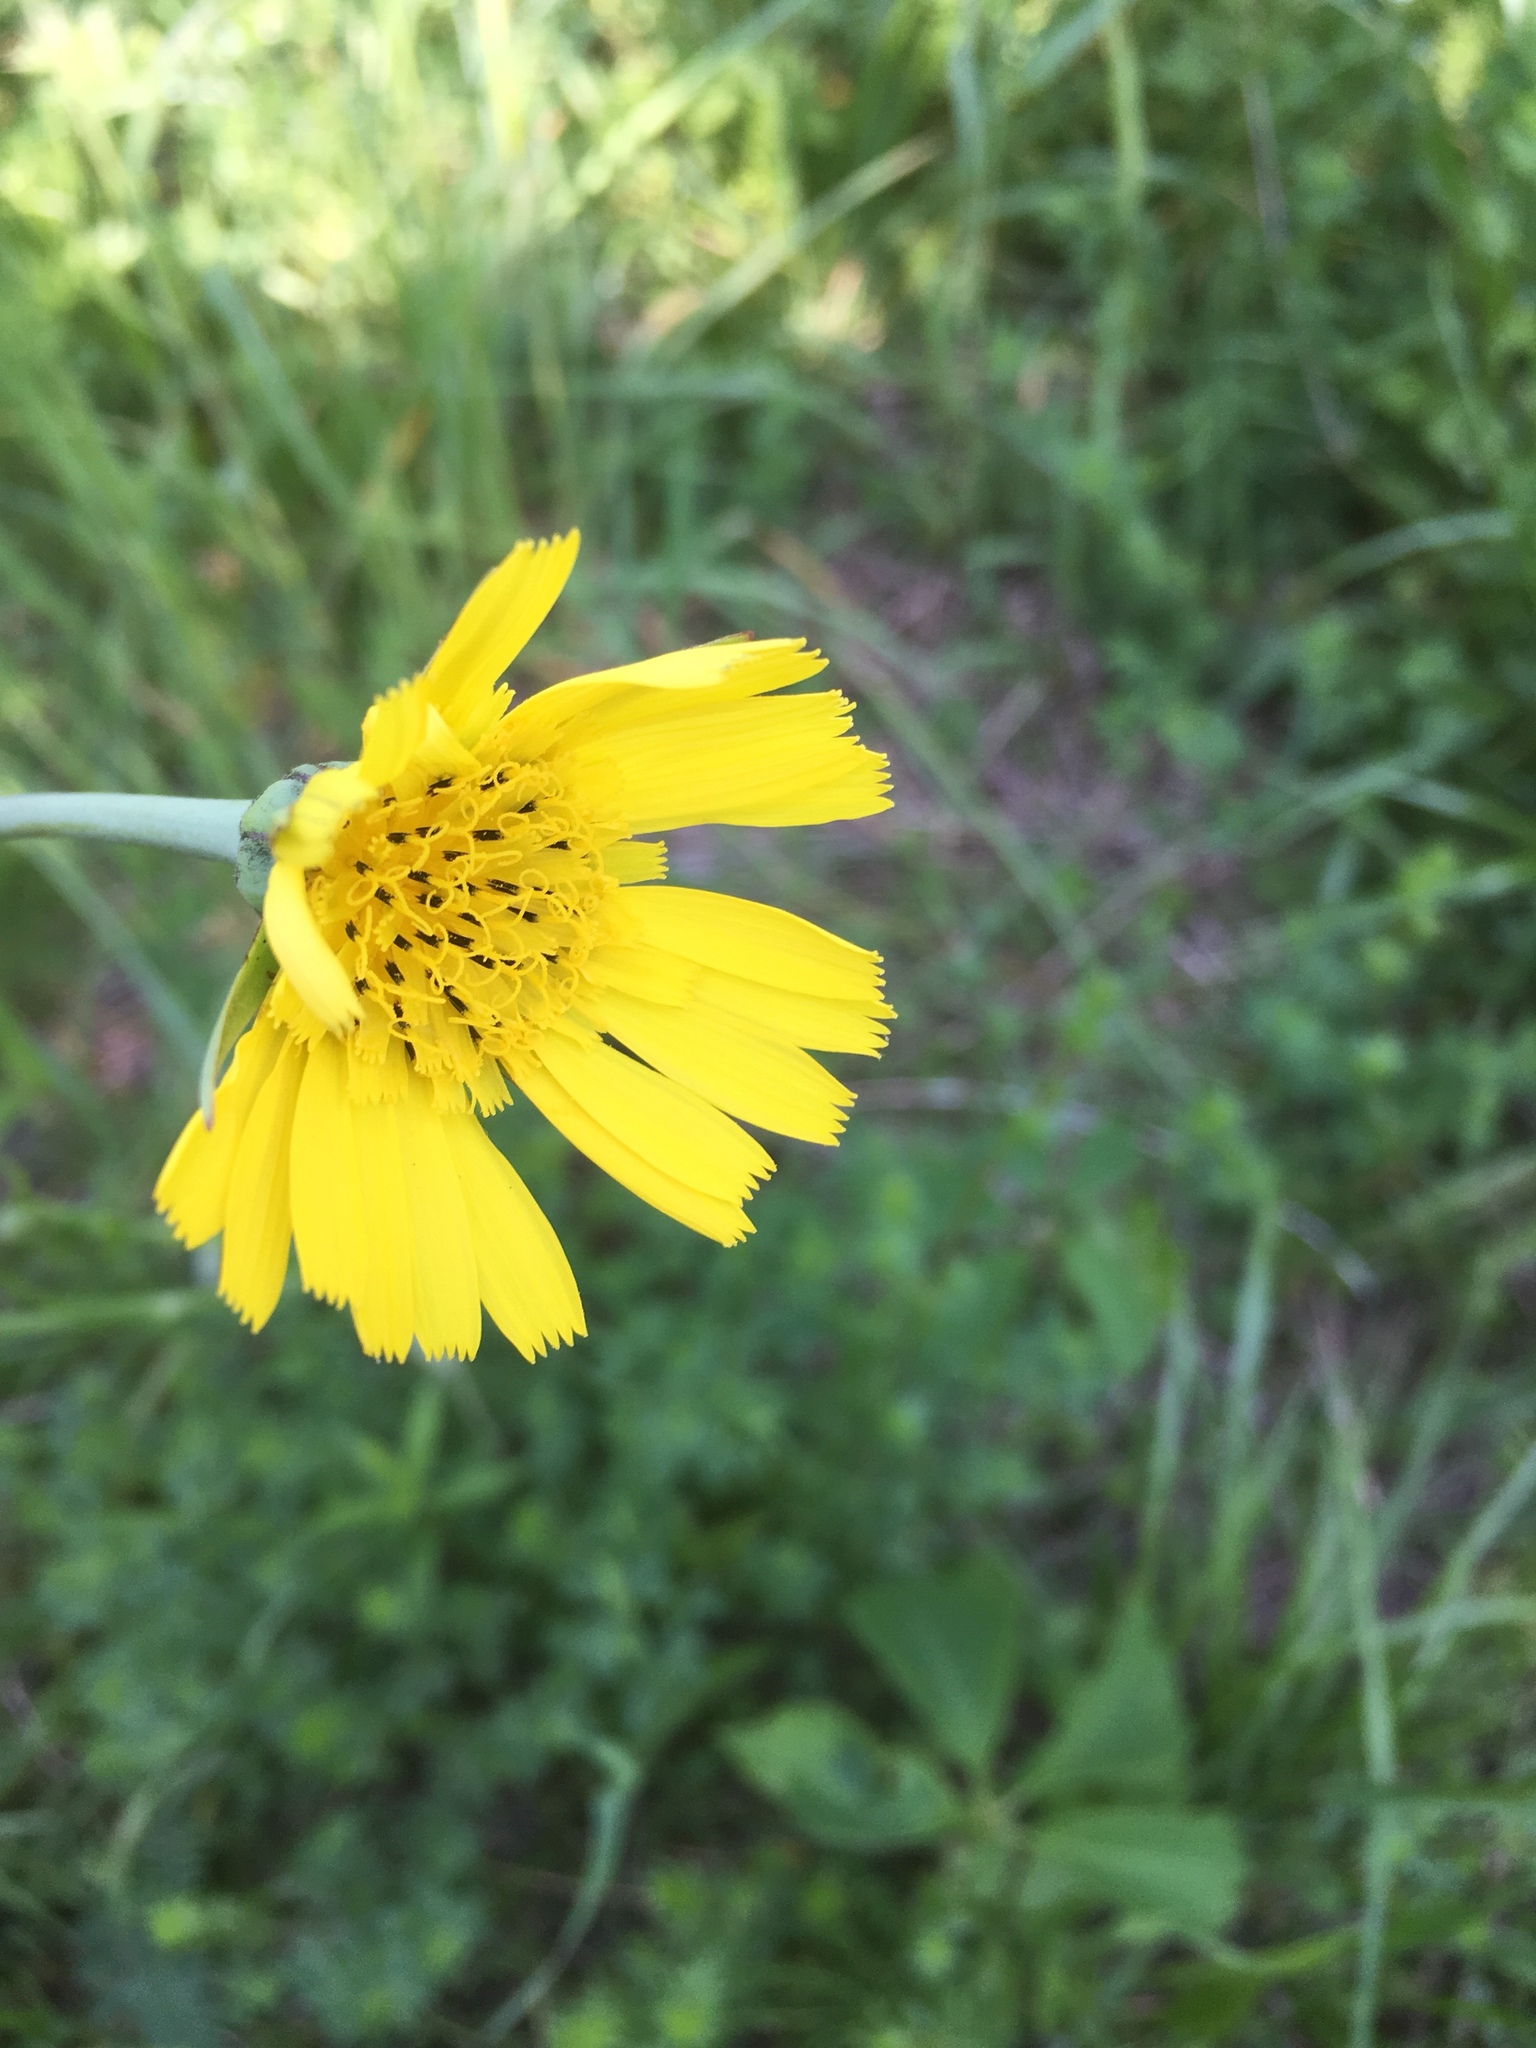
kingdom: Plantae
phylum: Tracheophyta
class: Magnoliopsida
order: Asterales
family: Asteraceae
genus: Tragopogon
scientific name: Tragopogon pratensis
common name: Goat's-beard
